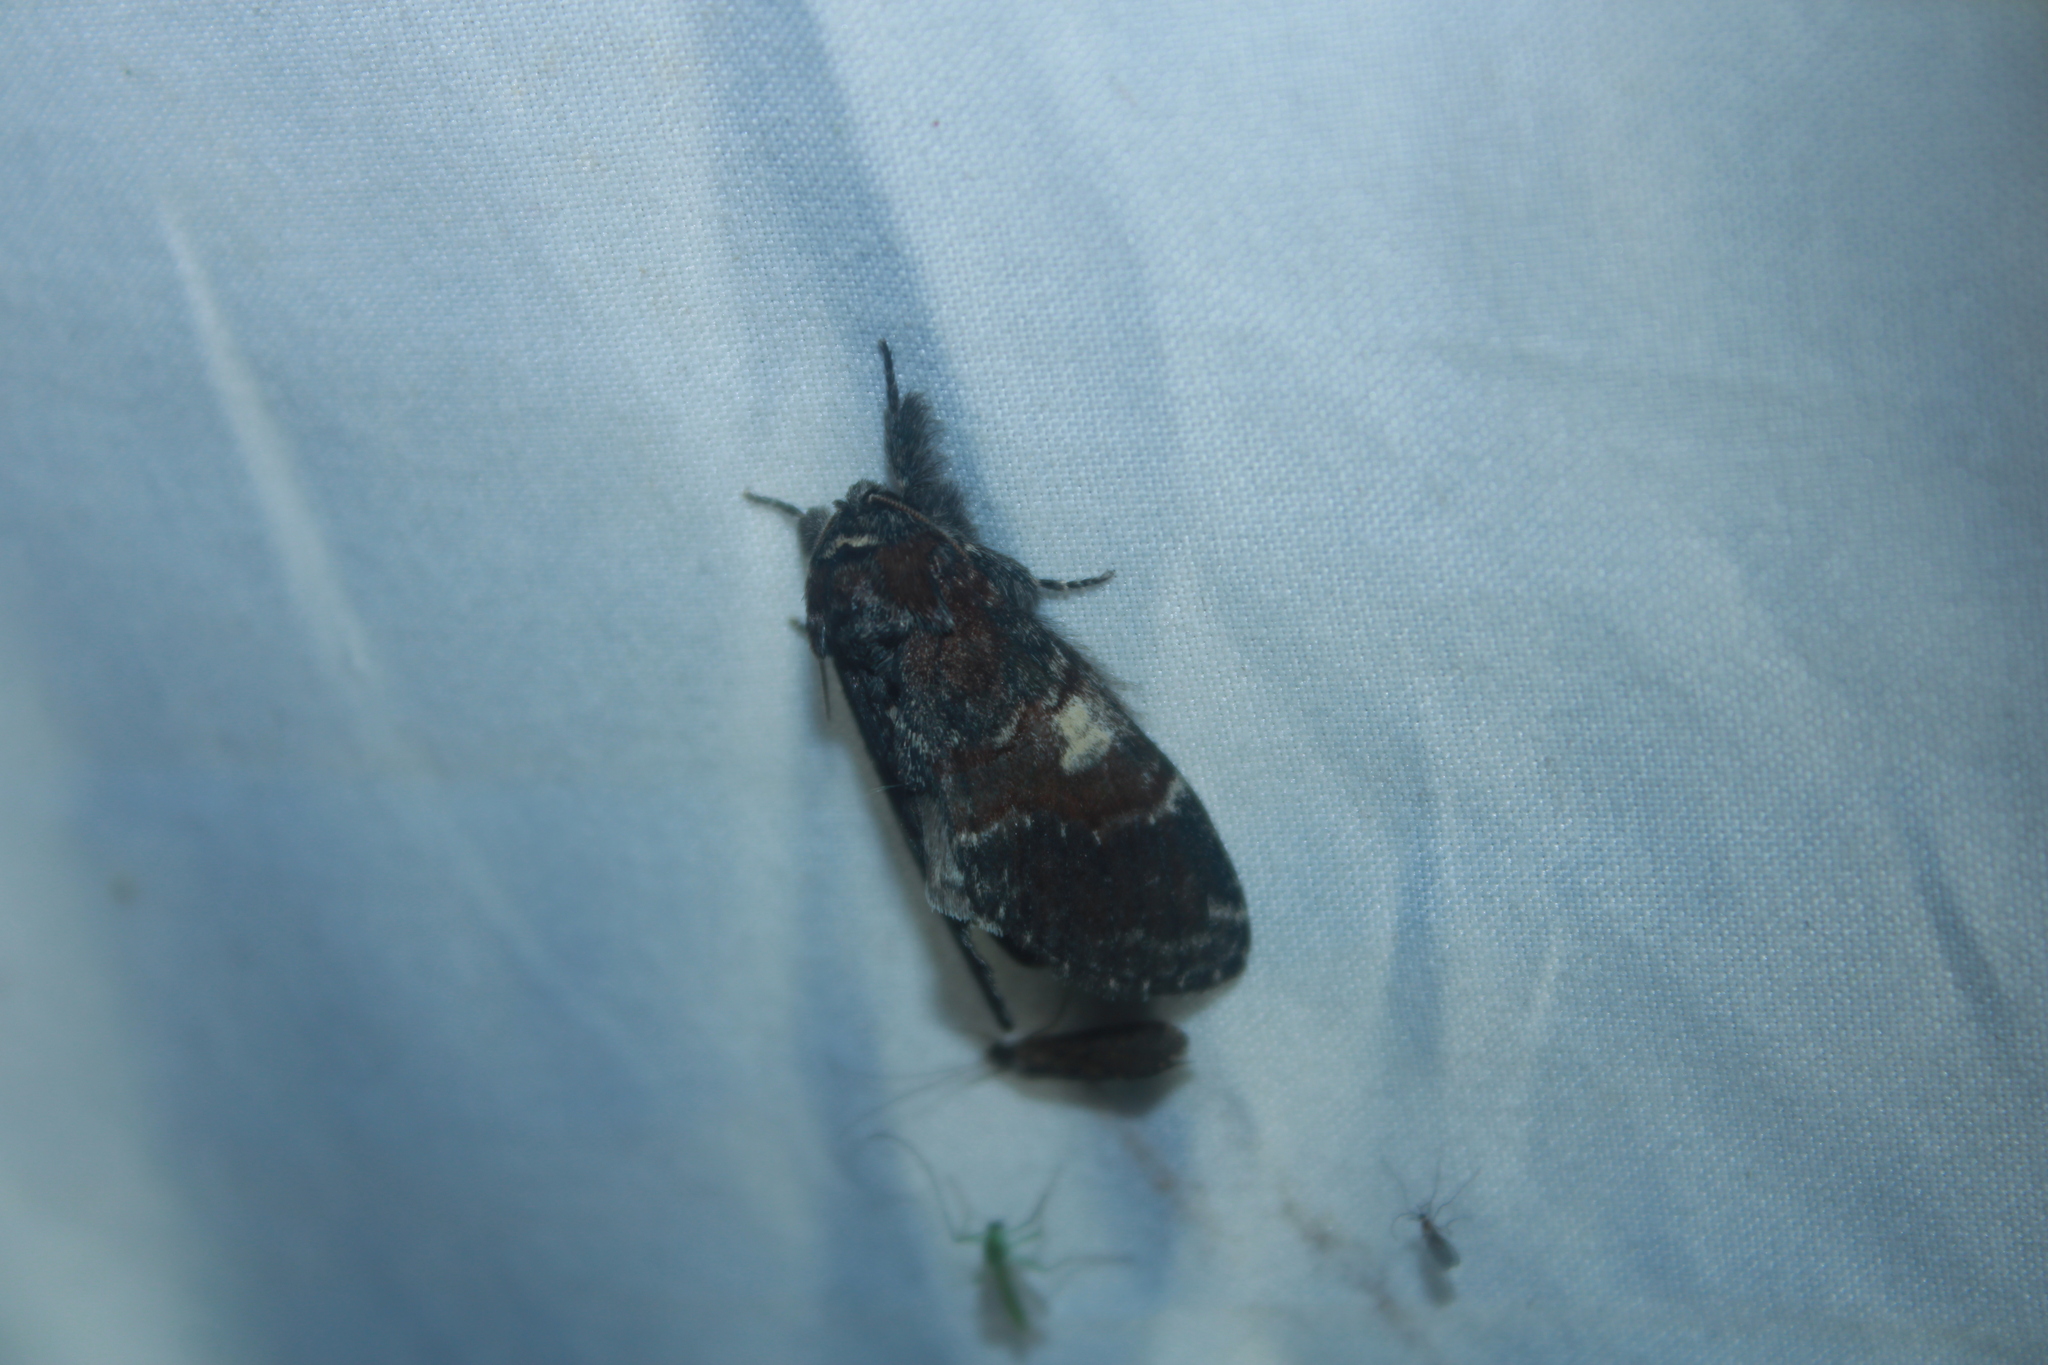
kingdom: Animalia
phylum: Arthropoda
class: Insecta
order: Lepidoptera
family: Notodontidae
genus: Peridea
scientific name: Peridea ferruginea
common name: Chocolate prominent
